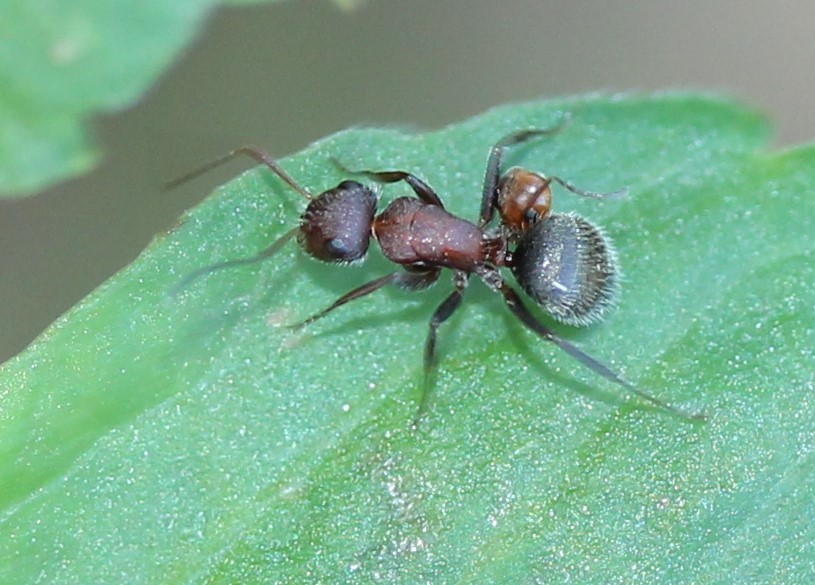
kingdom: Animalia
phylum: Arthropoda
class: Insecta
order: Hymenoptera
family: Formicidae
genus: Camponotus
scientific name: Camponotus planatus
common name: Compact carpenter ant
